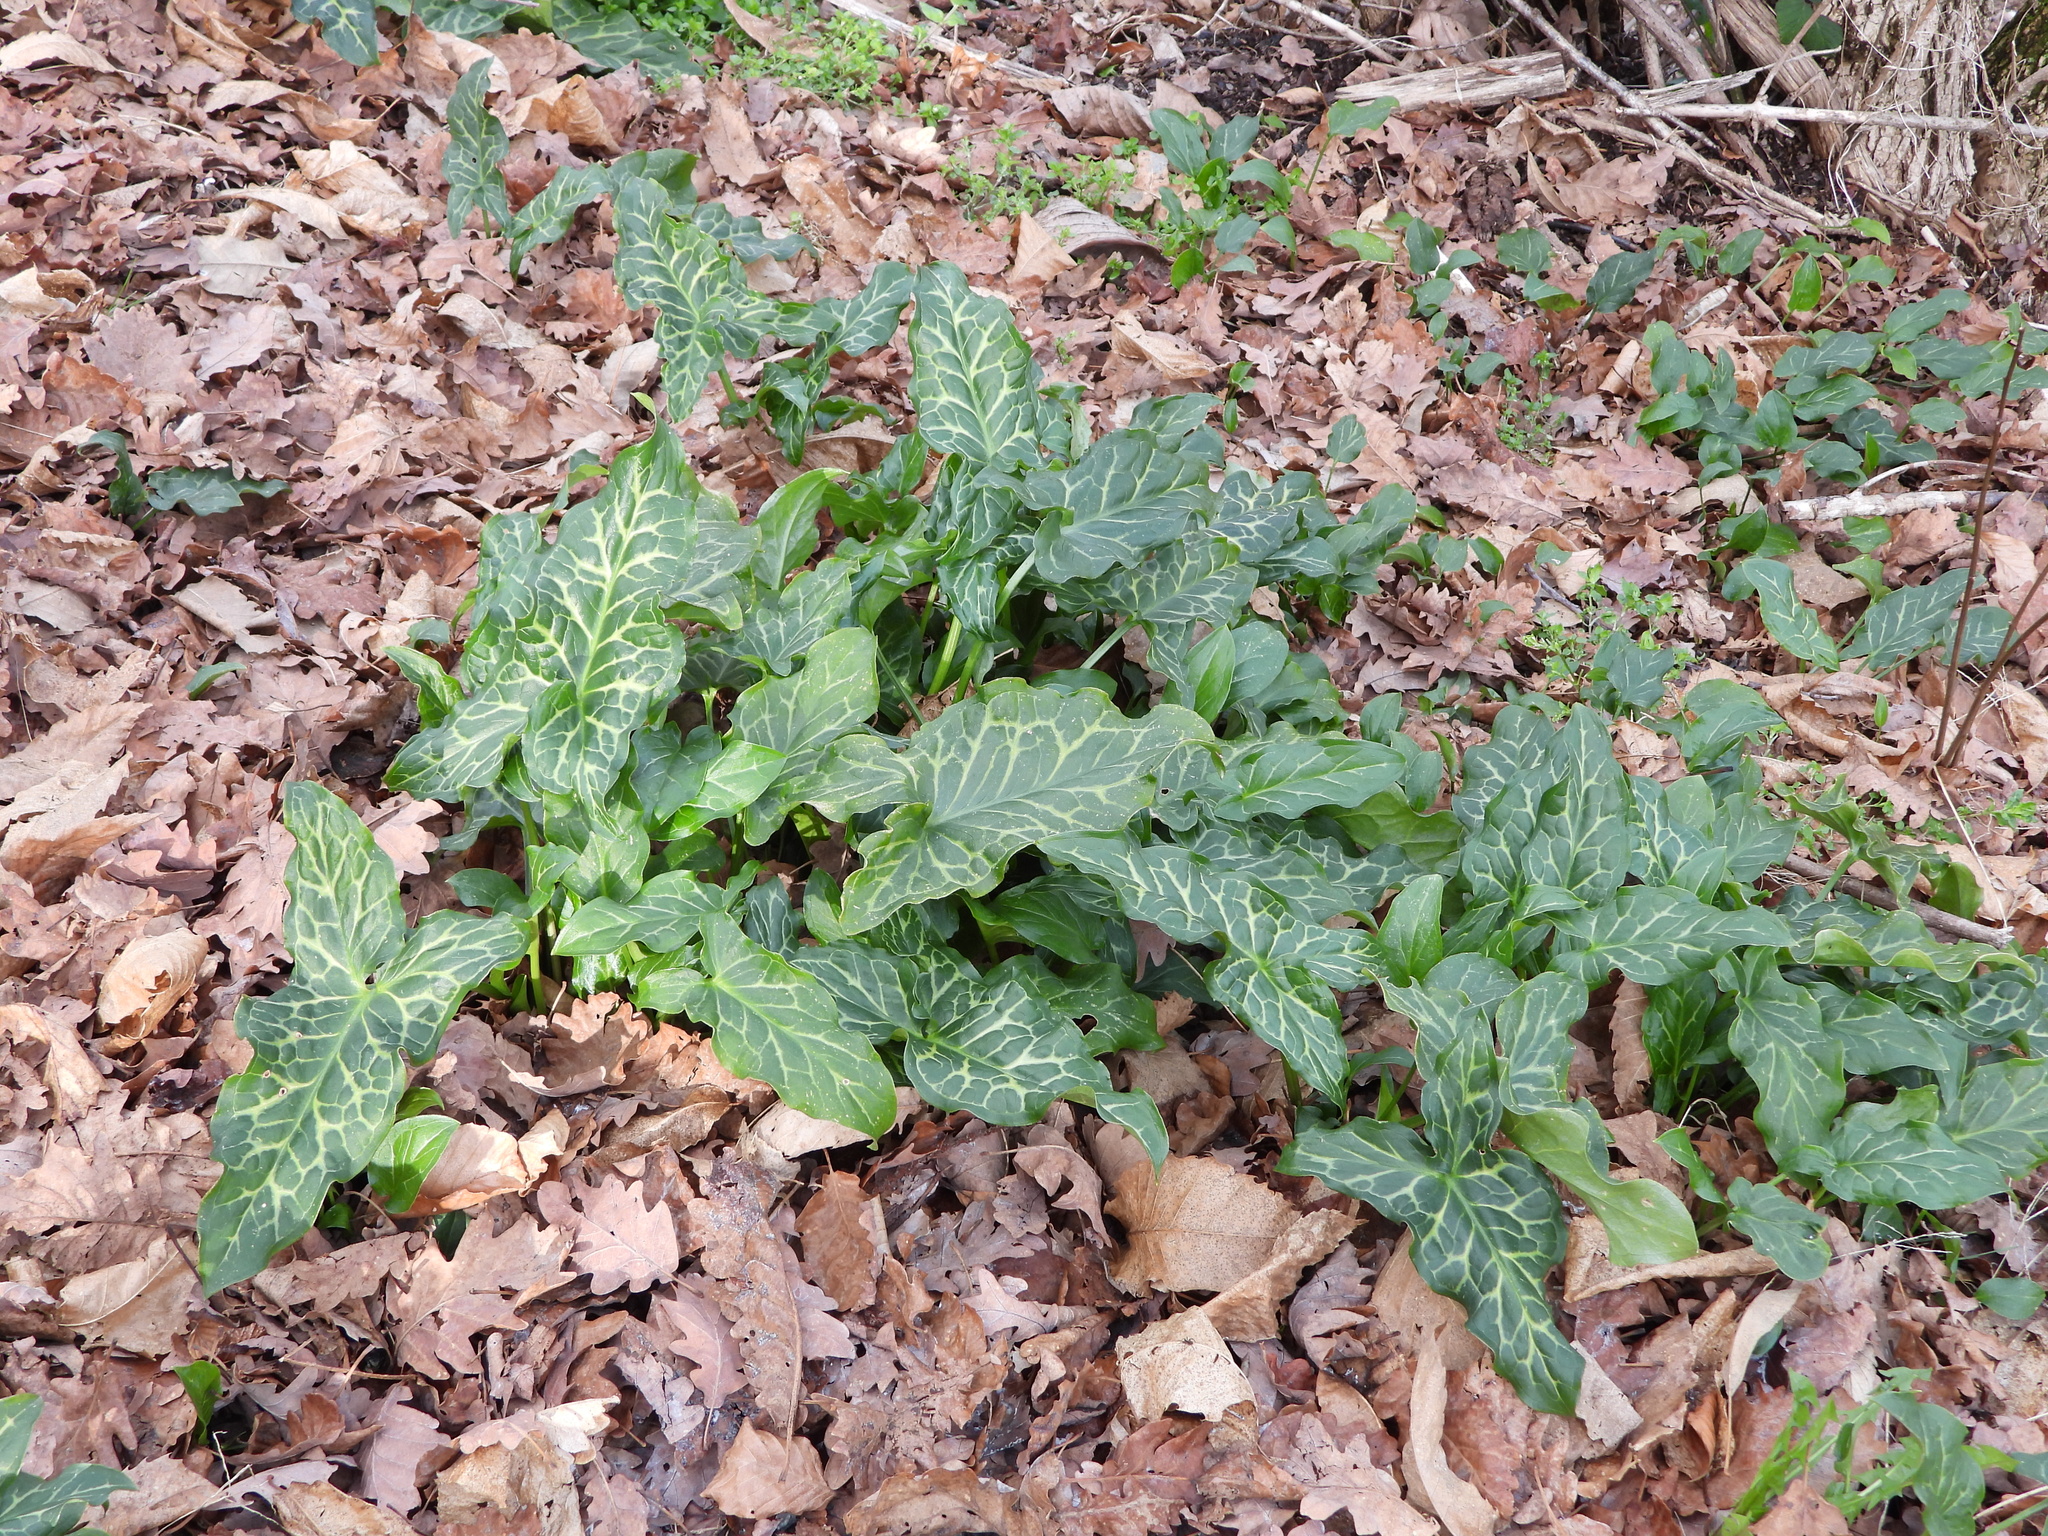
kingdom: Plantae
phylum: Tracheophyta
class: Liliopsida
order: Alismatales
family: Araceae
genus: Arum
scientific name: Arum italicum
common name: Italian lords-and-ladies
